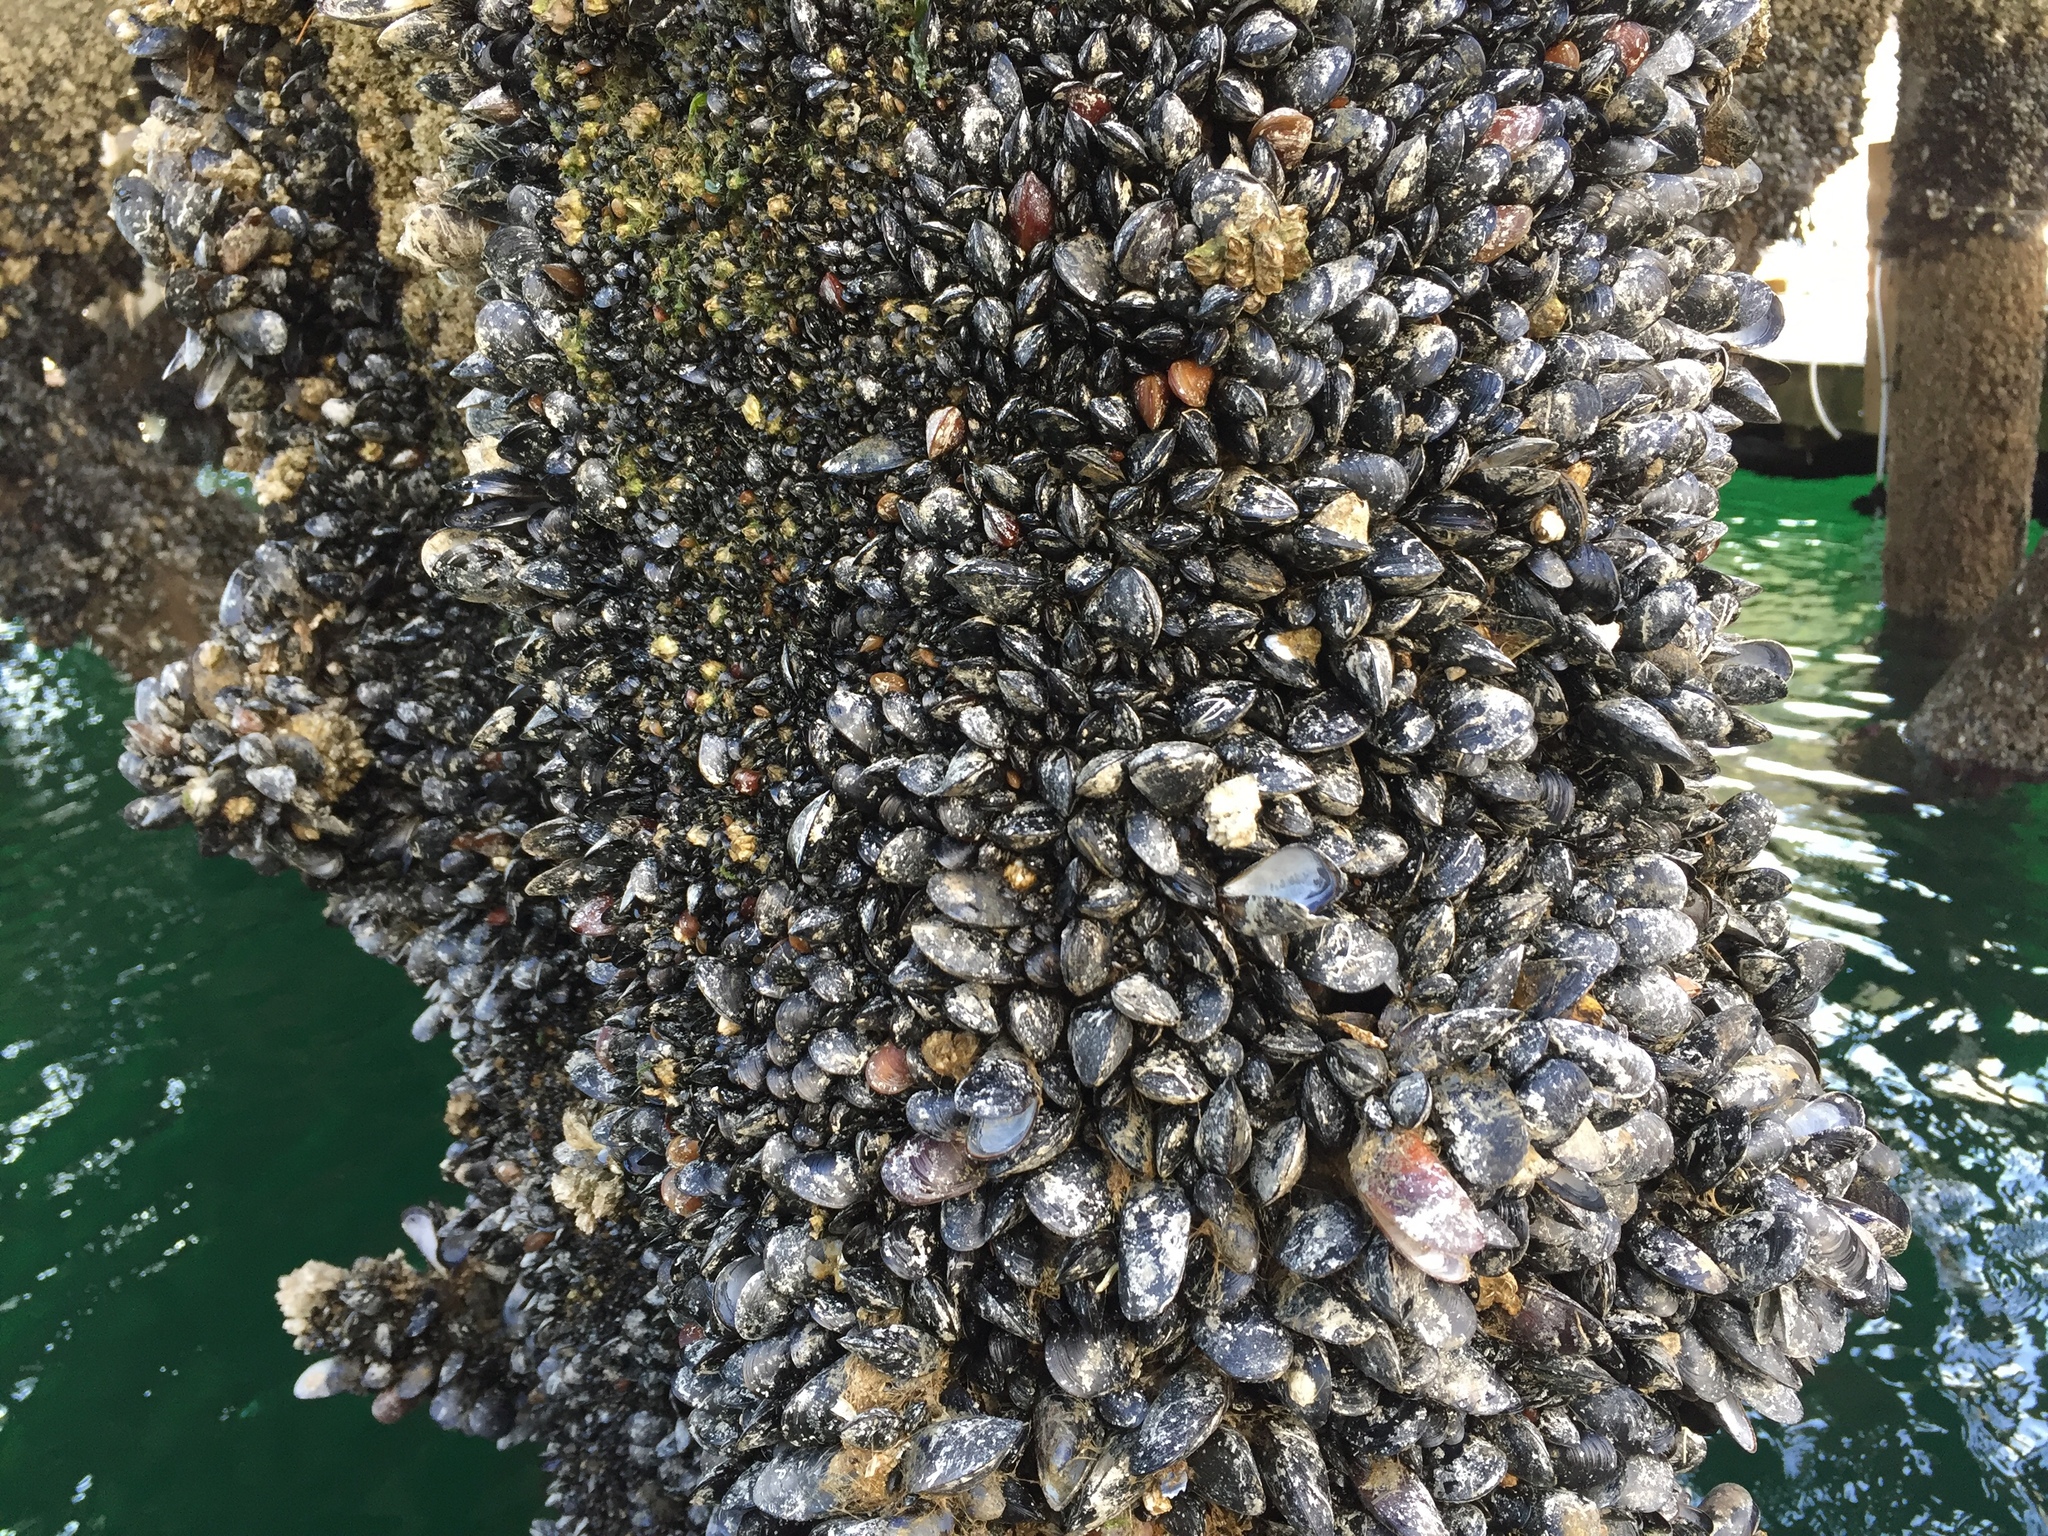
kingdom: Animalia
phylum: Mollusca
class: Bivalvia
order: Mytilida
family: Mytilidae
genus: Mytilus
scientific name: Mytilus
